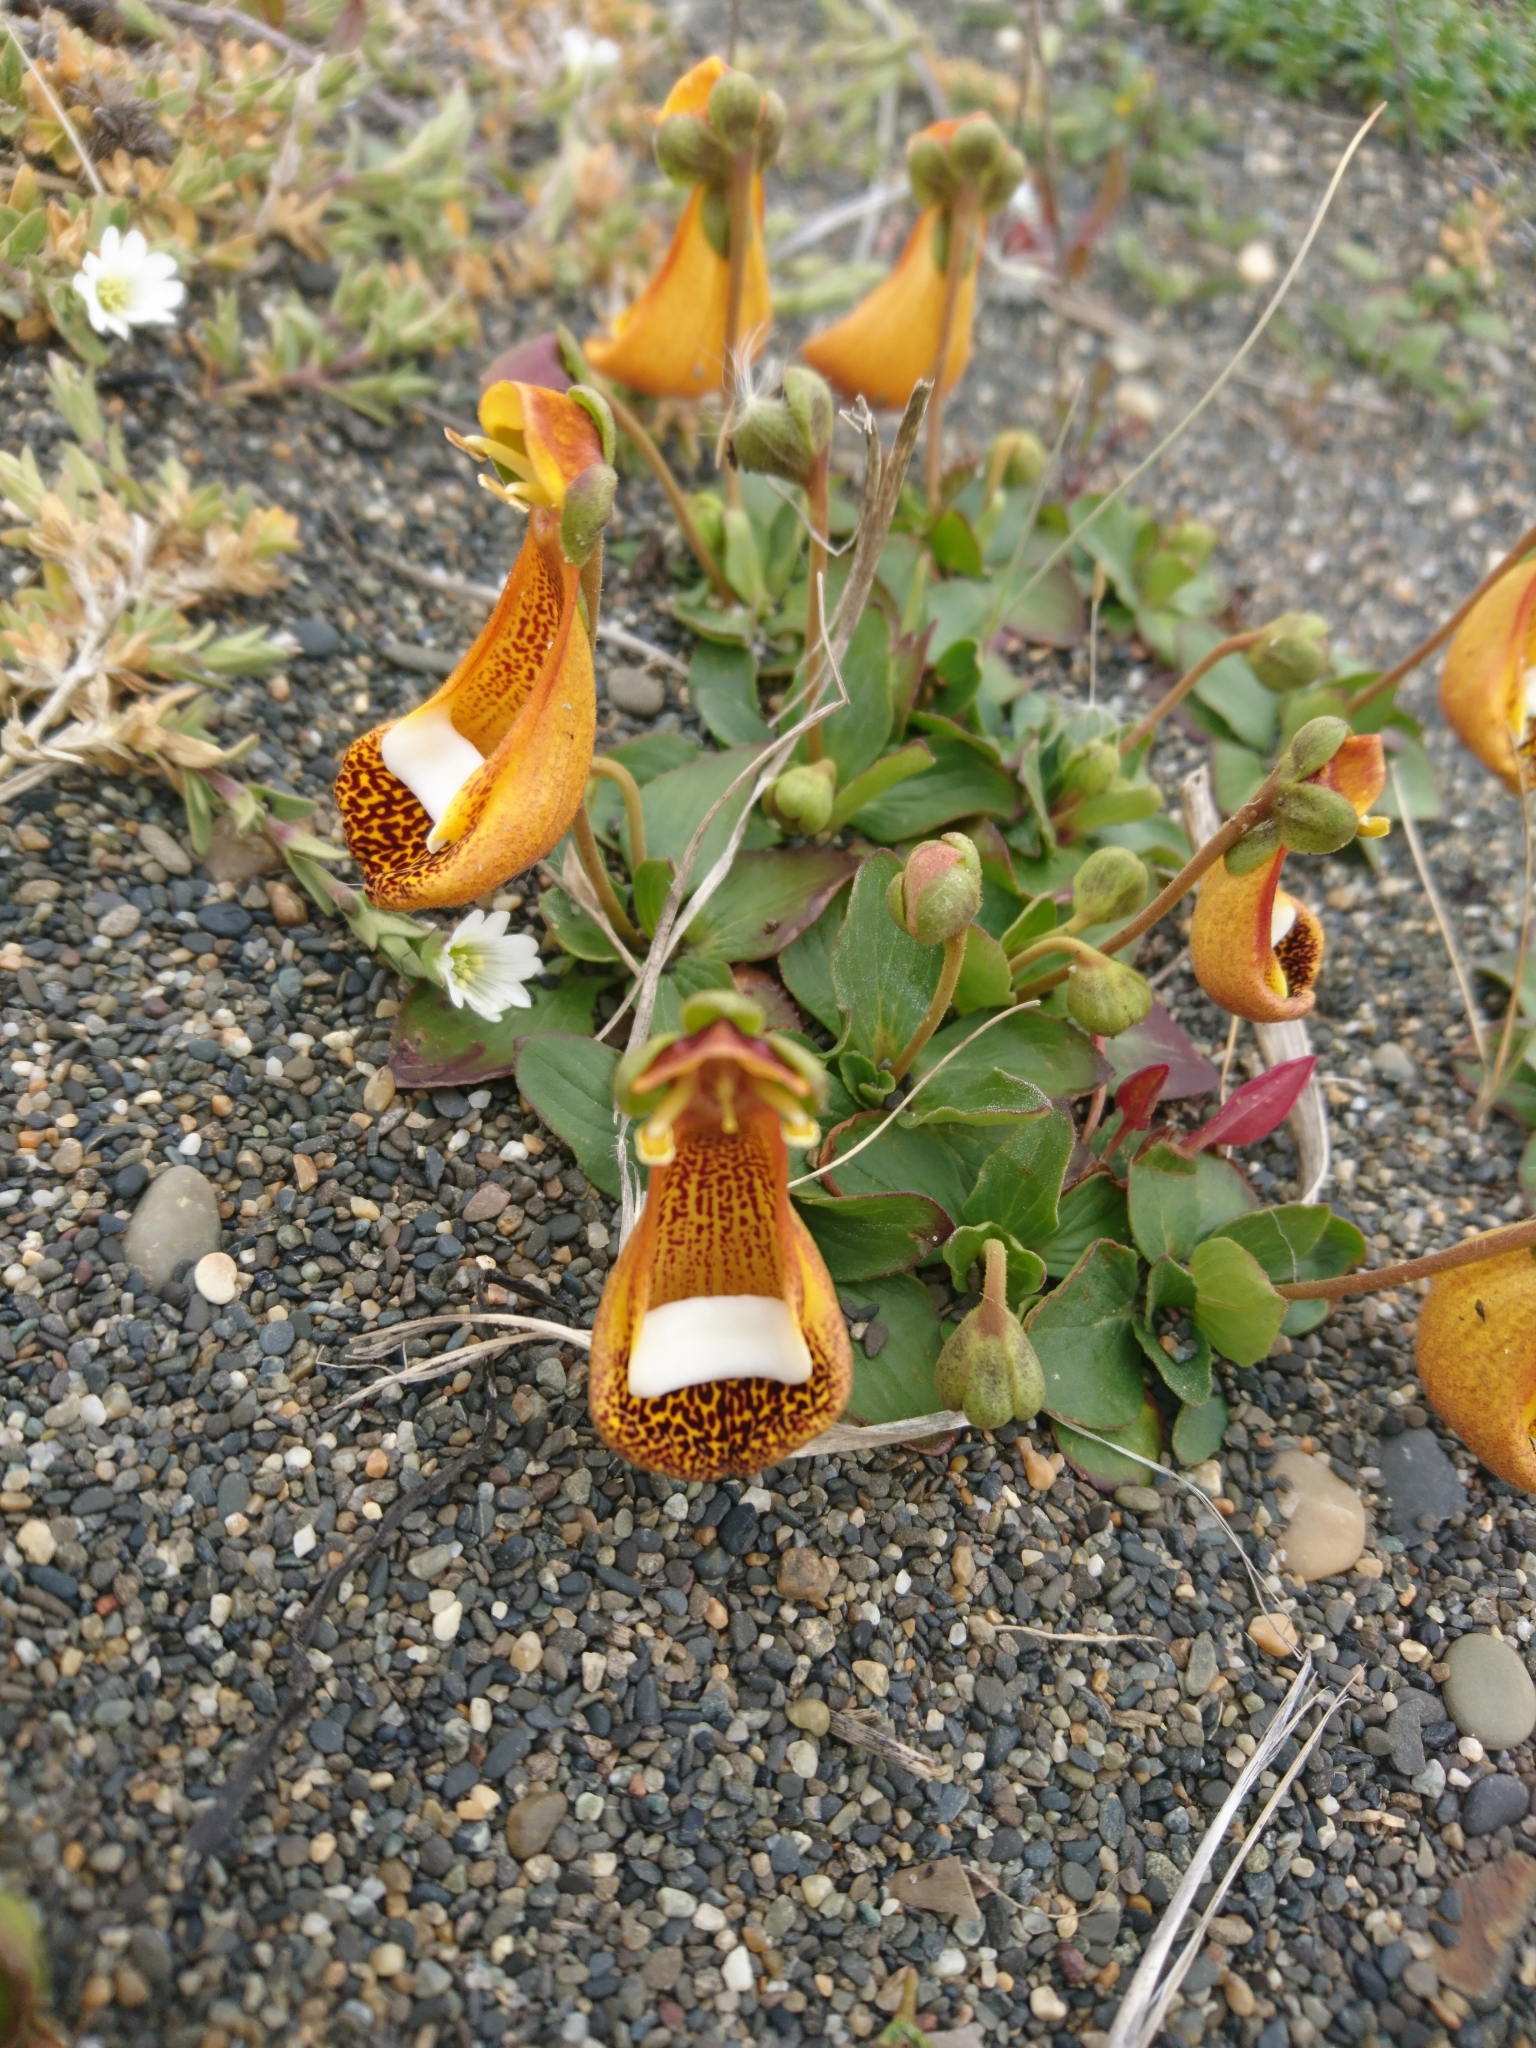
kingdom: Plantae
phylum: Tracheophyta
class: Magnoliopsida
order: Lamiales
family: Calceolariaceae
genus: Calceolaria
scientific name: Calceolaria uniflora
